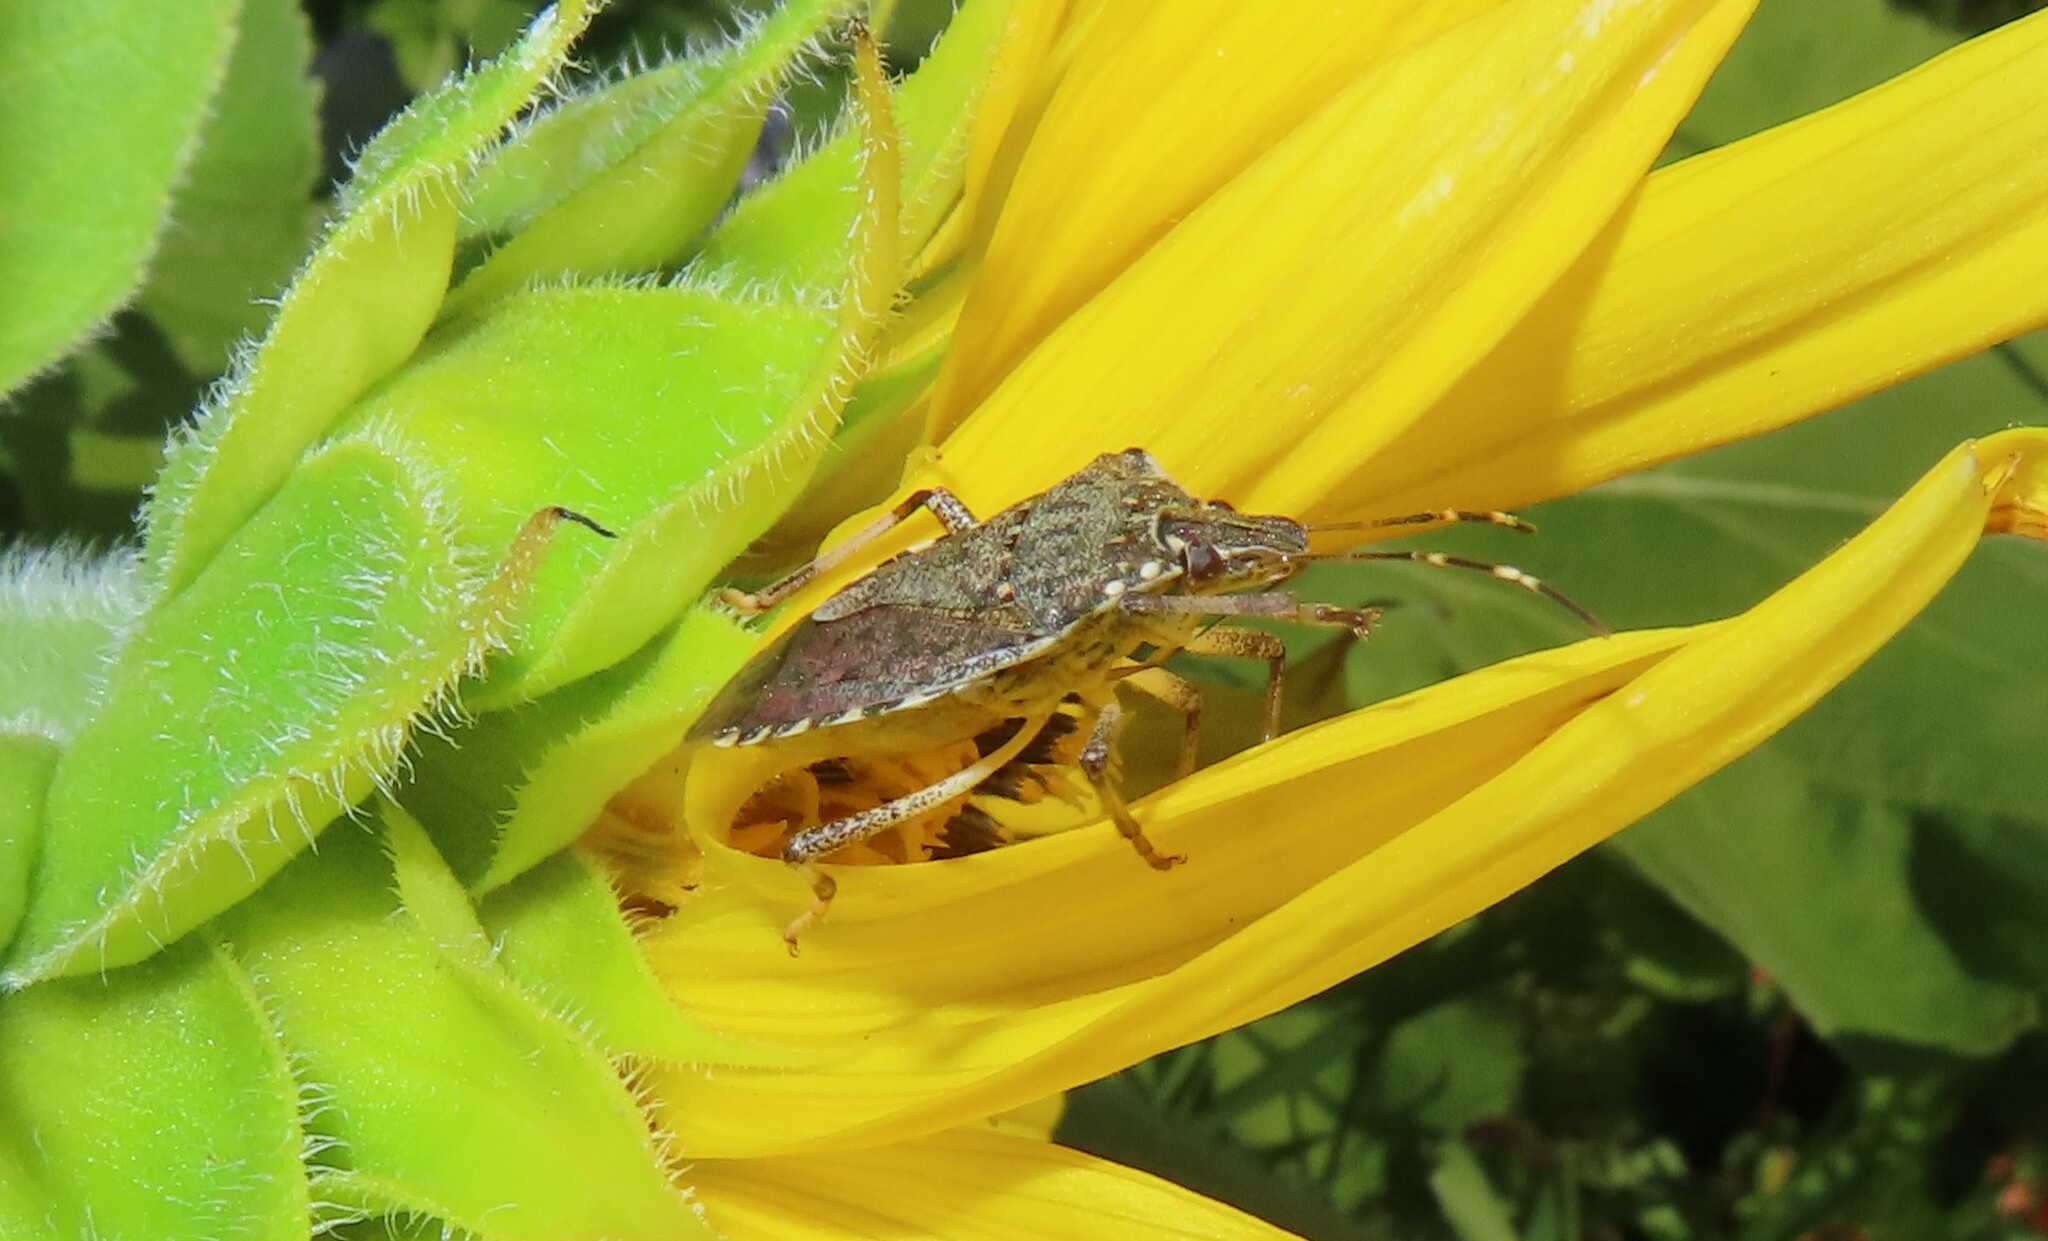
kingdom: Animalia
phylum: Arthropoda
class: Insecta
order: Hemiptera
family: Pentatomidae
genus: Halyomorpha
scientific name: Halyomorpha halys
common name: Brown marmorated stink bug
